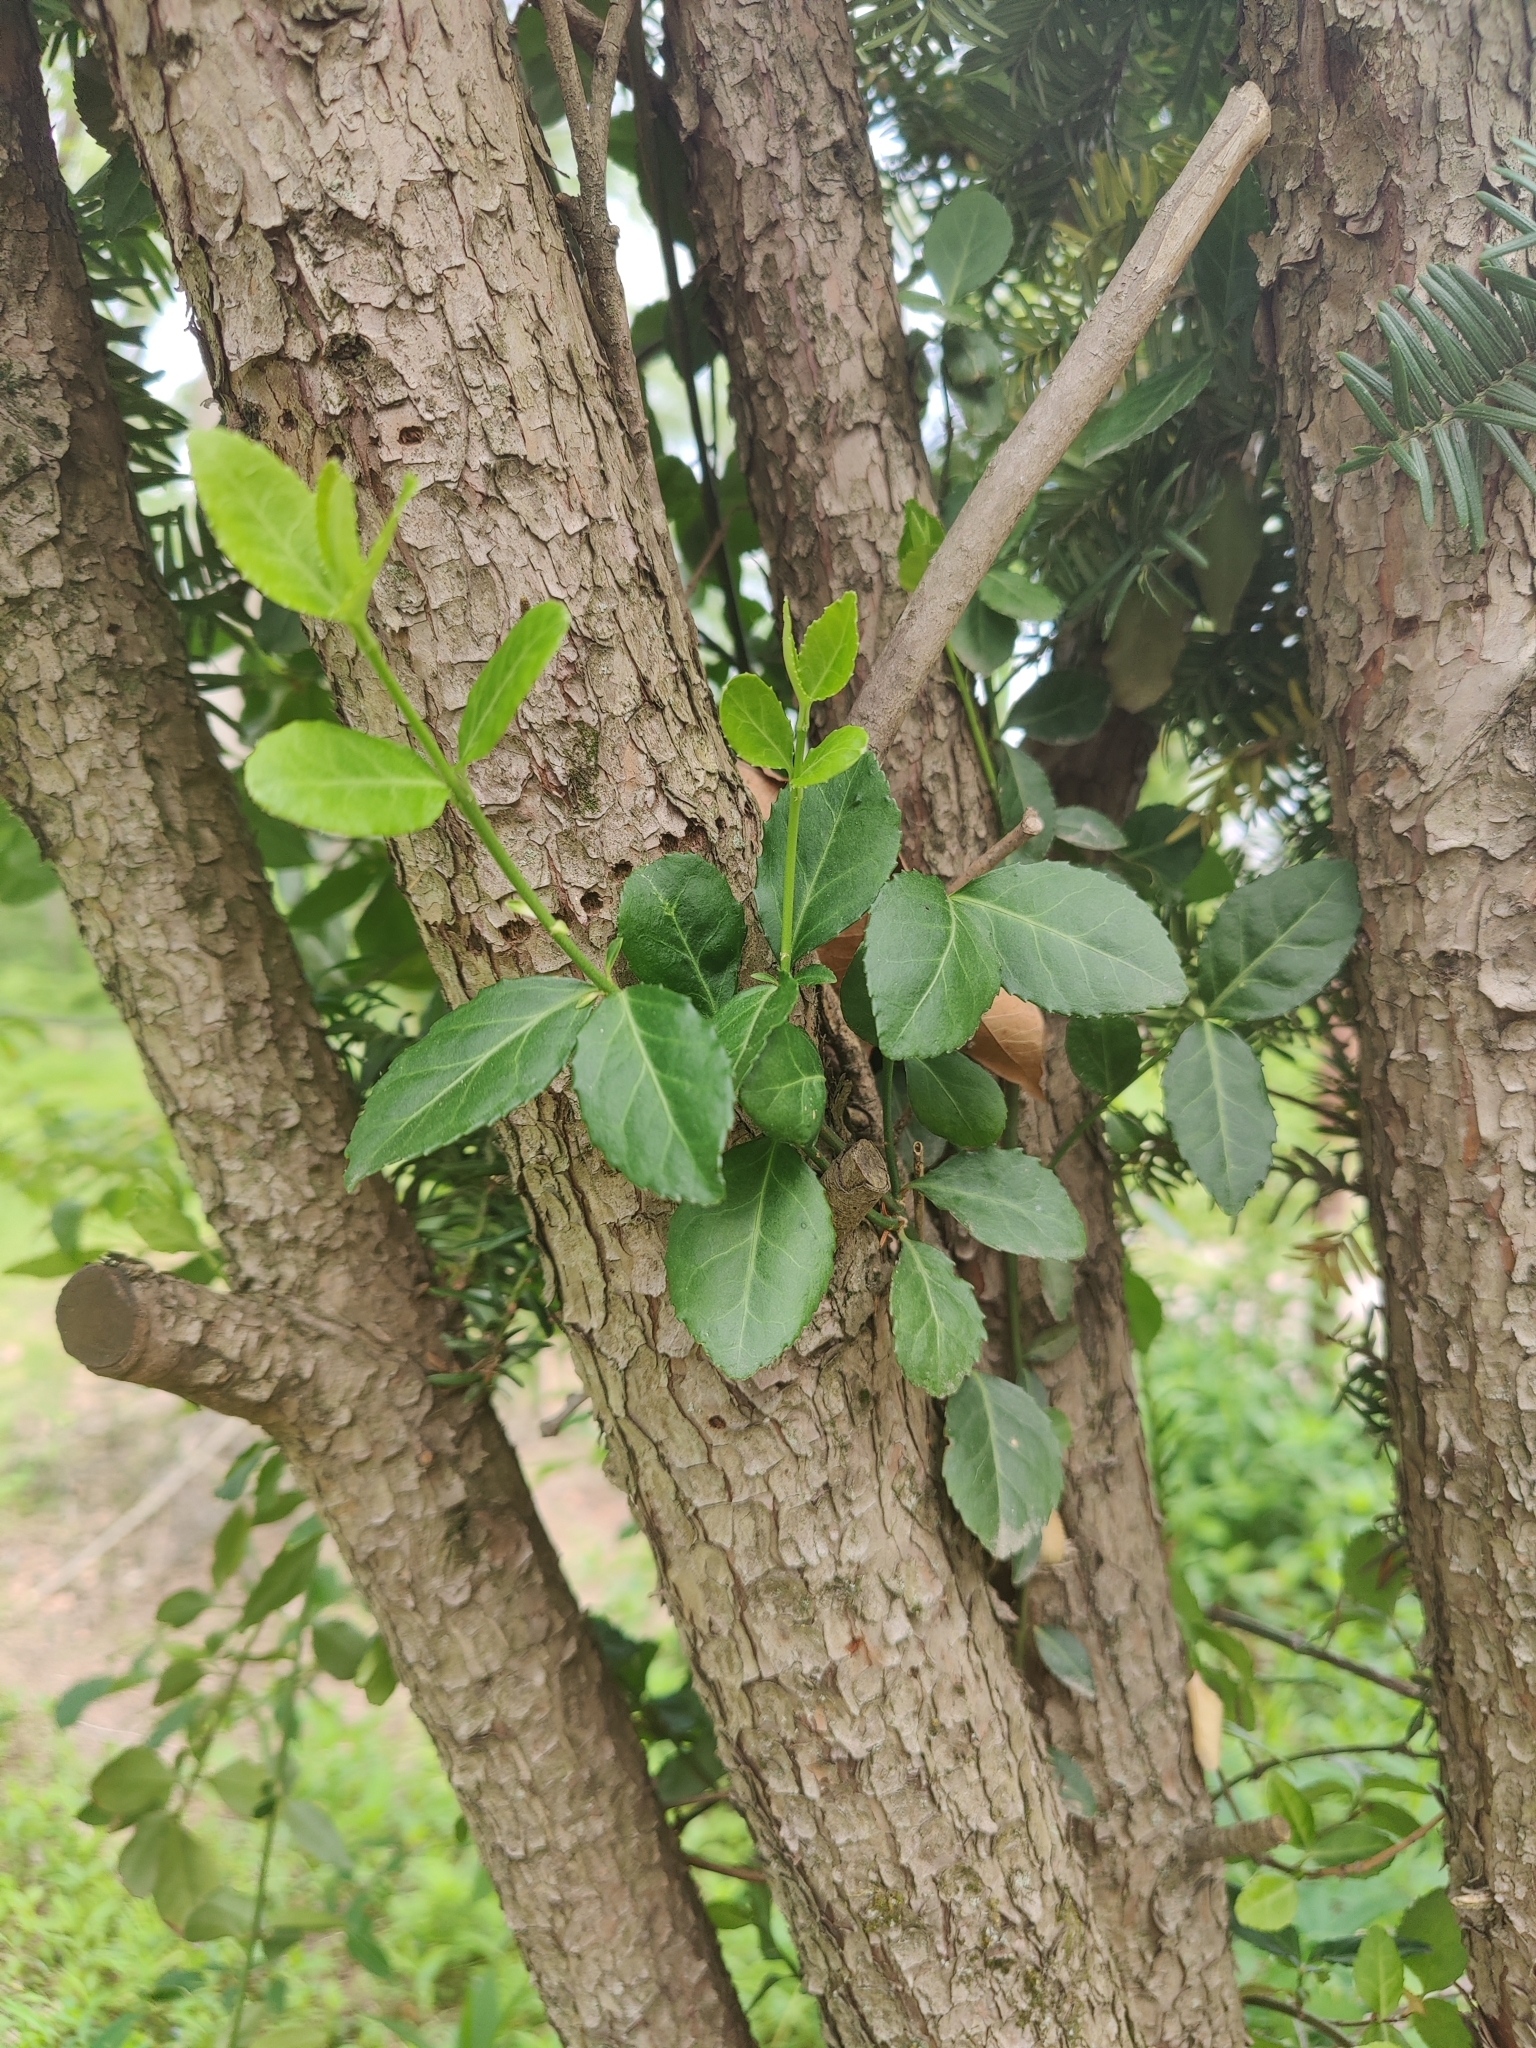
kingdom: Plantae
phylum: Tracheophyta
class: Magnoliopsida
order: Celastrales
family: Celastraceae
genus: Euonymus
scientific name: Euonymus fortunei
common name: Climbing euonymus
